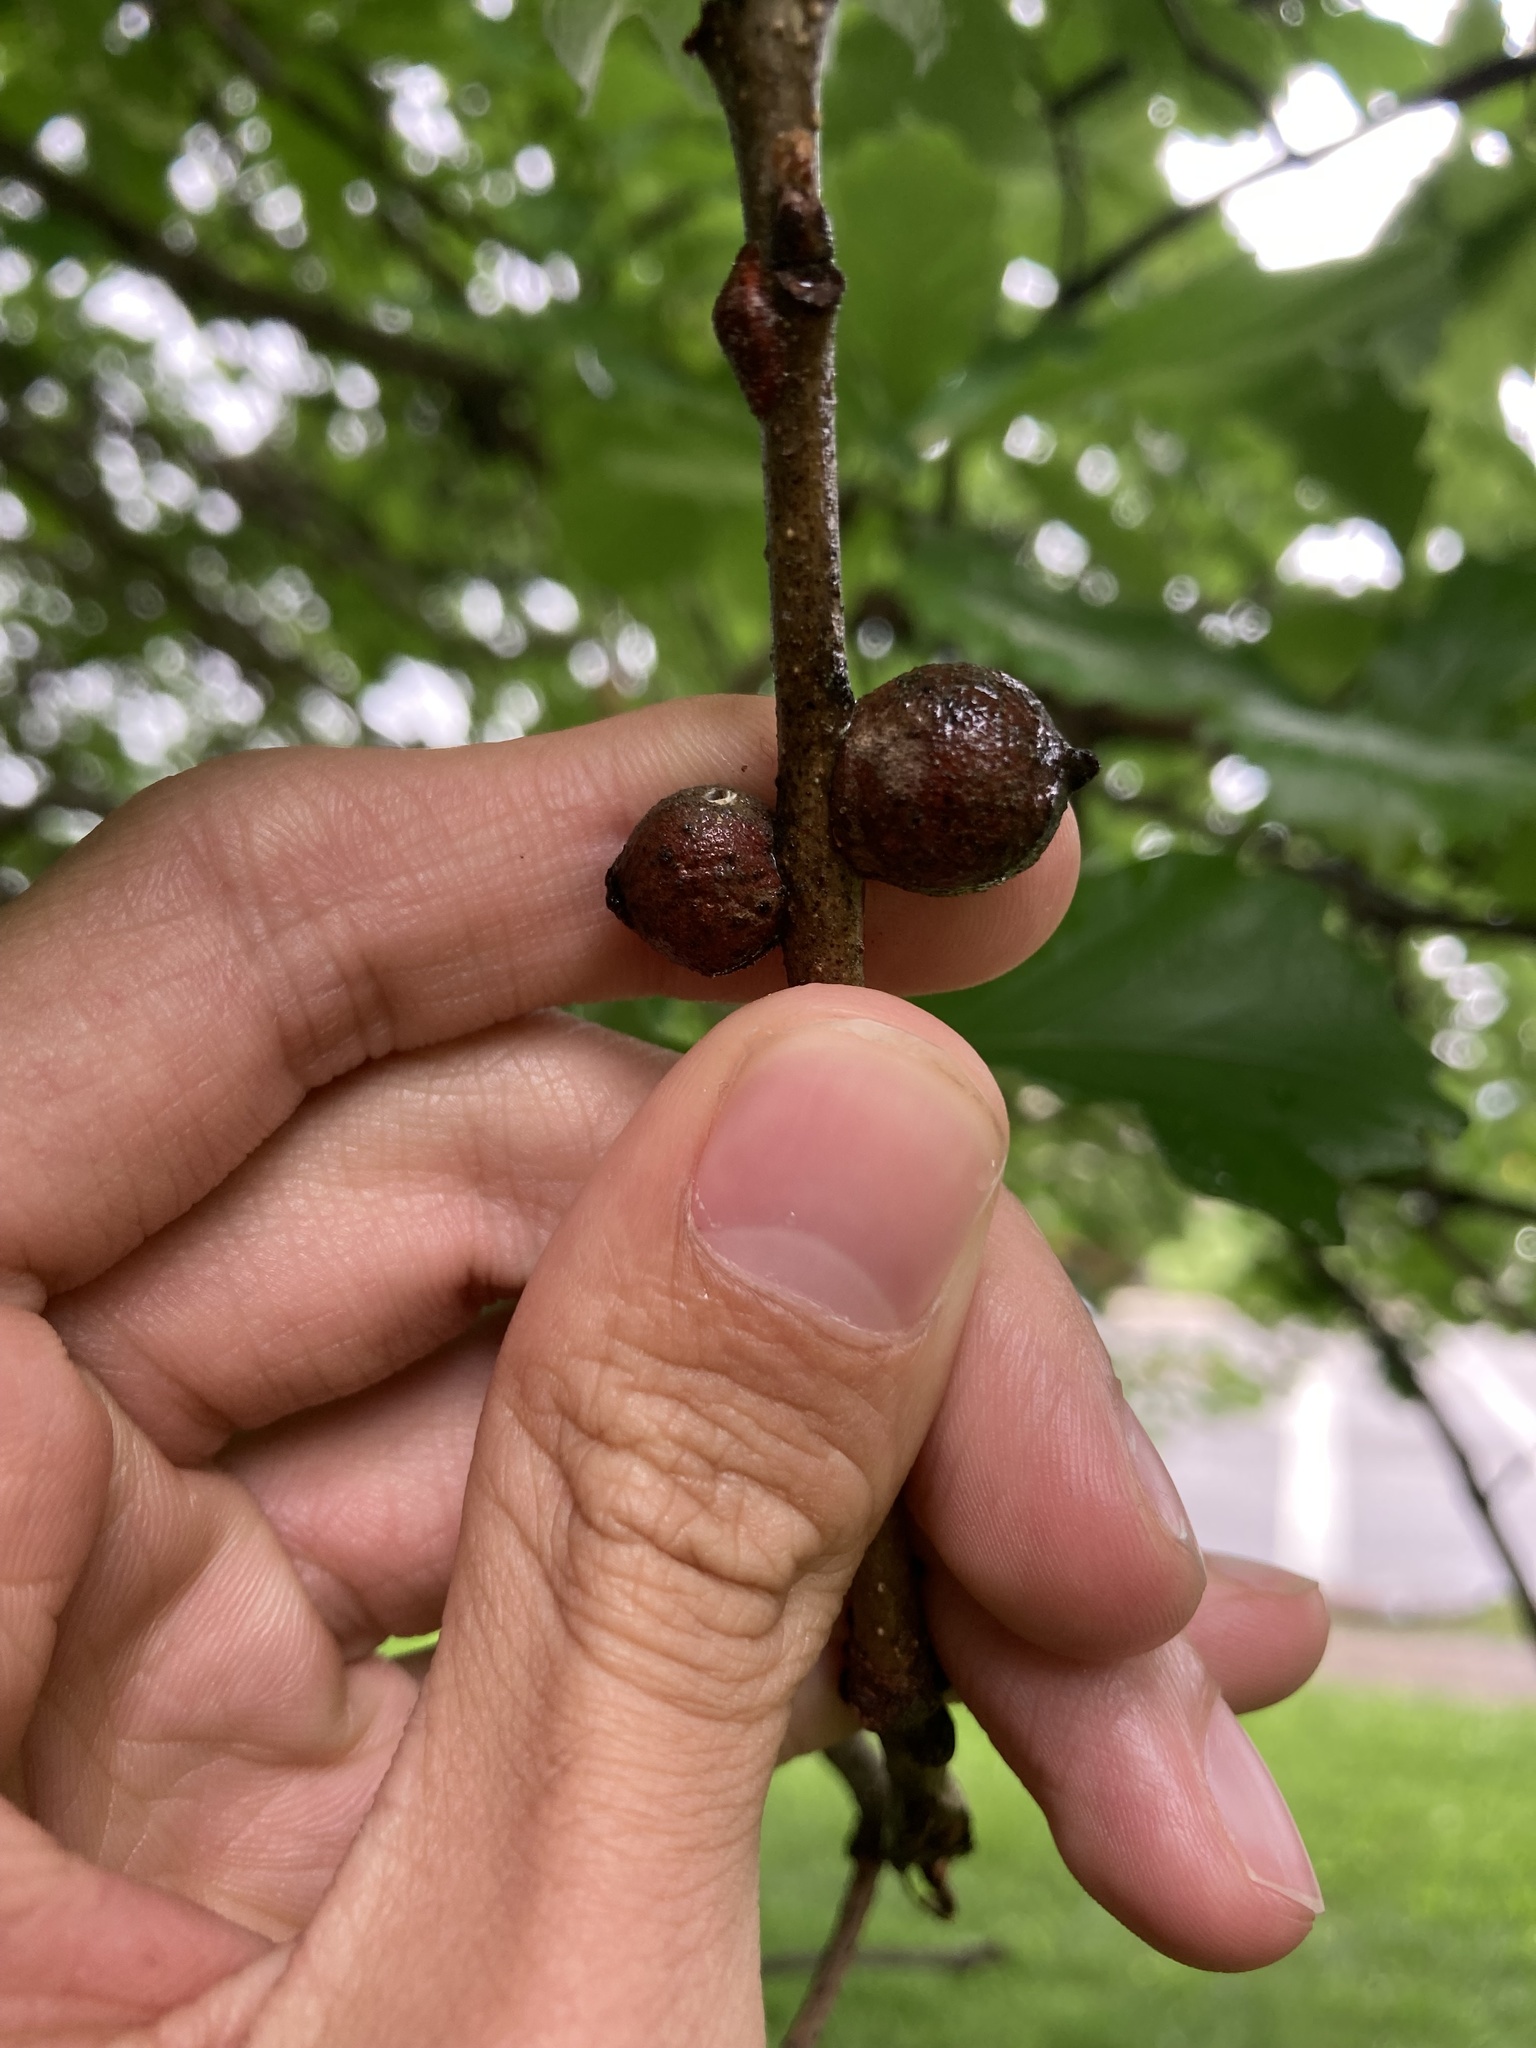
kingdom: Animalia
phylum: Arthropoda
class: Insecta
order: Hymenoptera
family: Cynipidae
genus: Disholcaspis
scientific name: Disholcaspis
